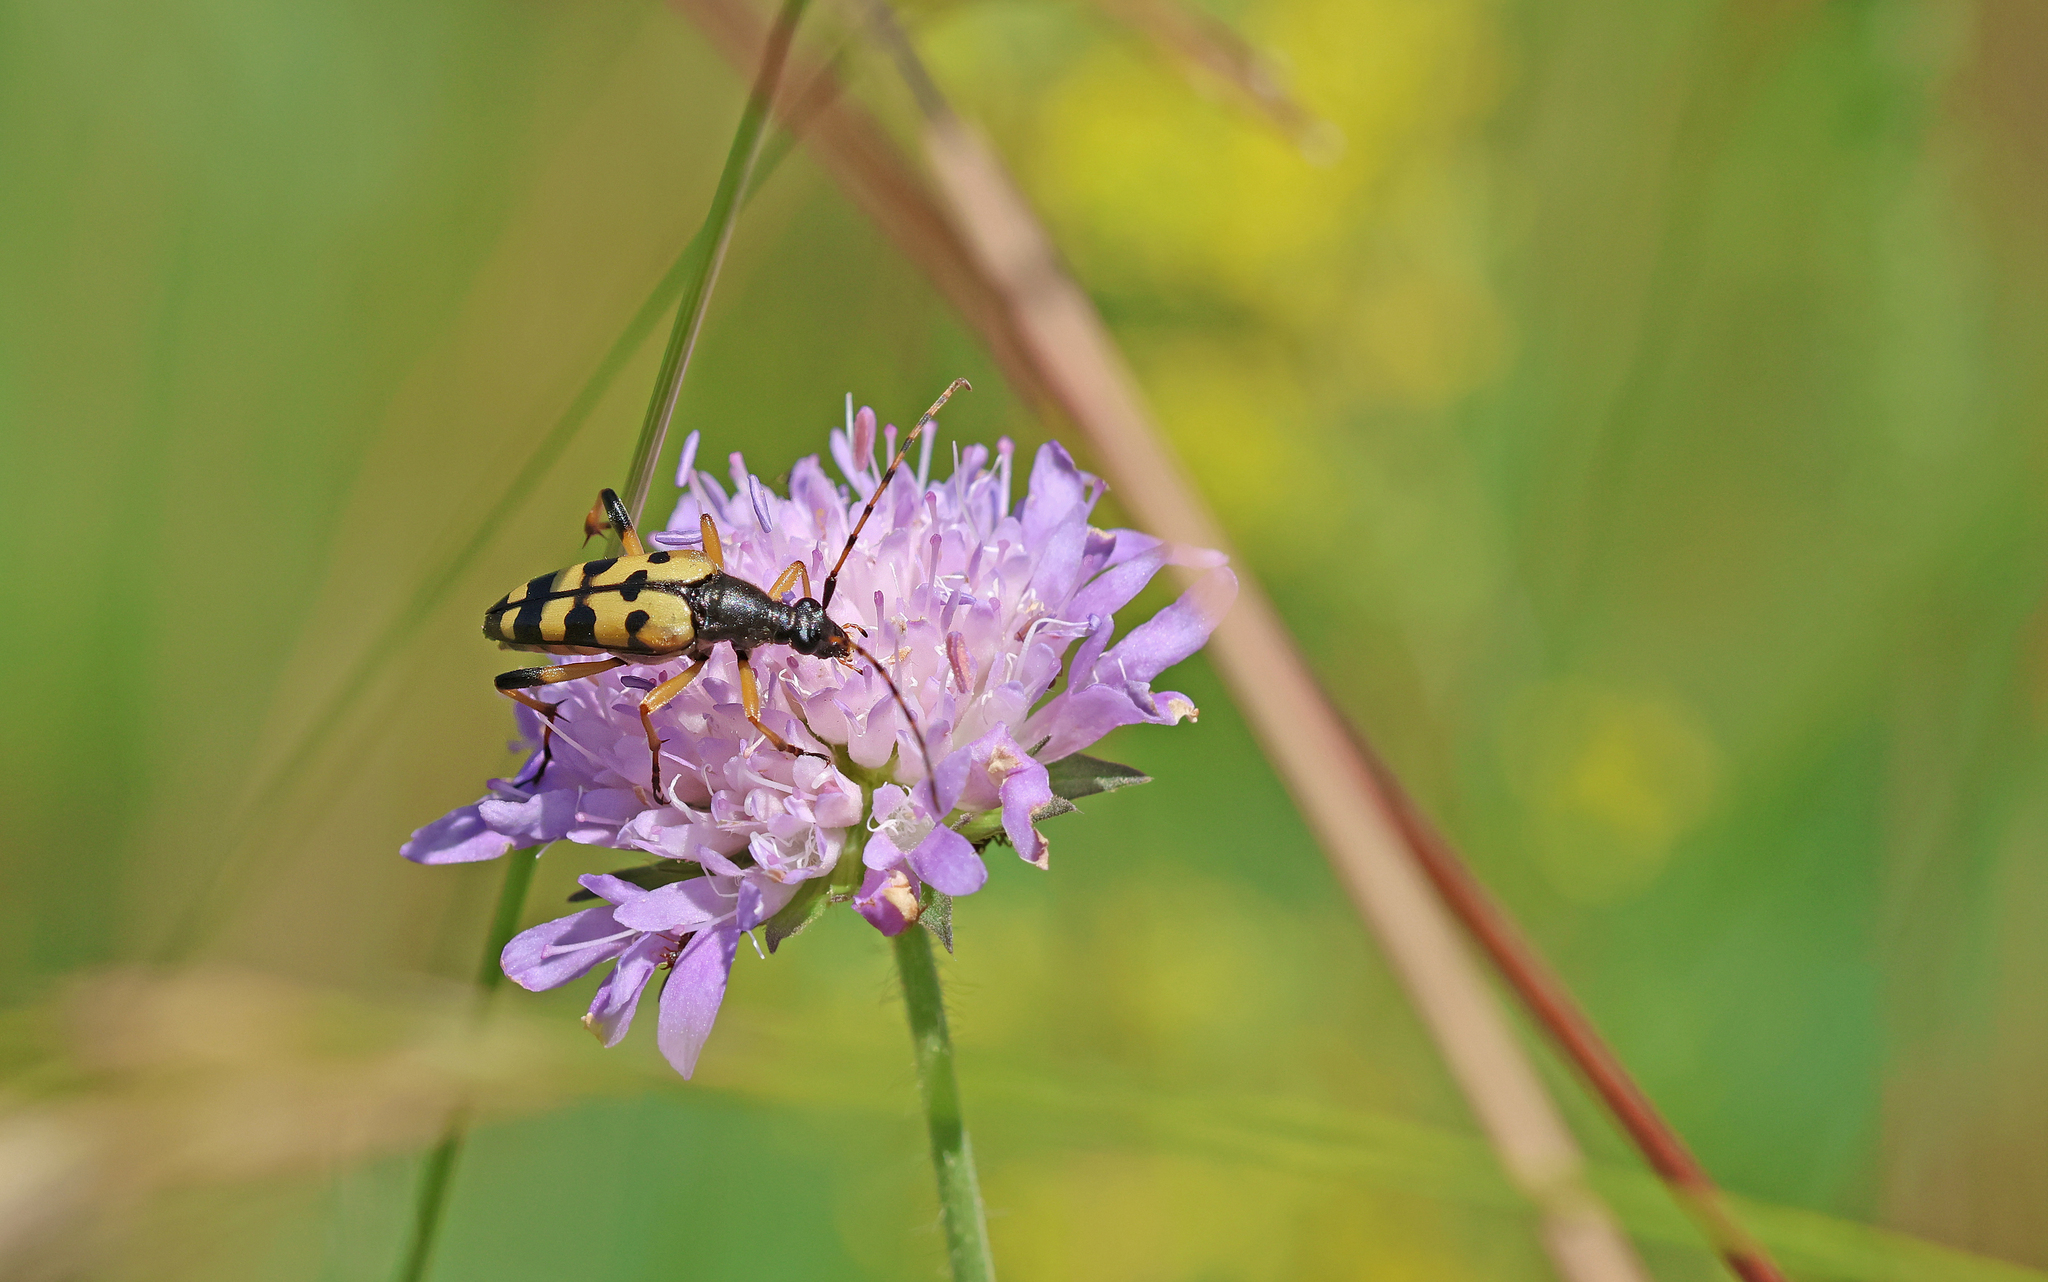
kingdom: Animalia
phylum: Arthropoda
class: Insecta
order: Coleoptera
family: Cerambycidae
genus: Rutpela
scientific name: Rutpela maculata
